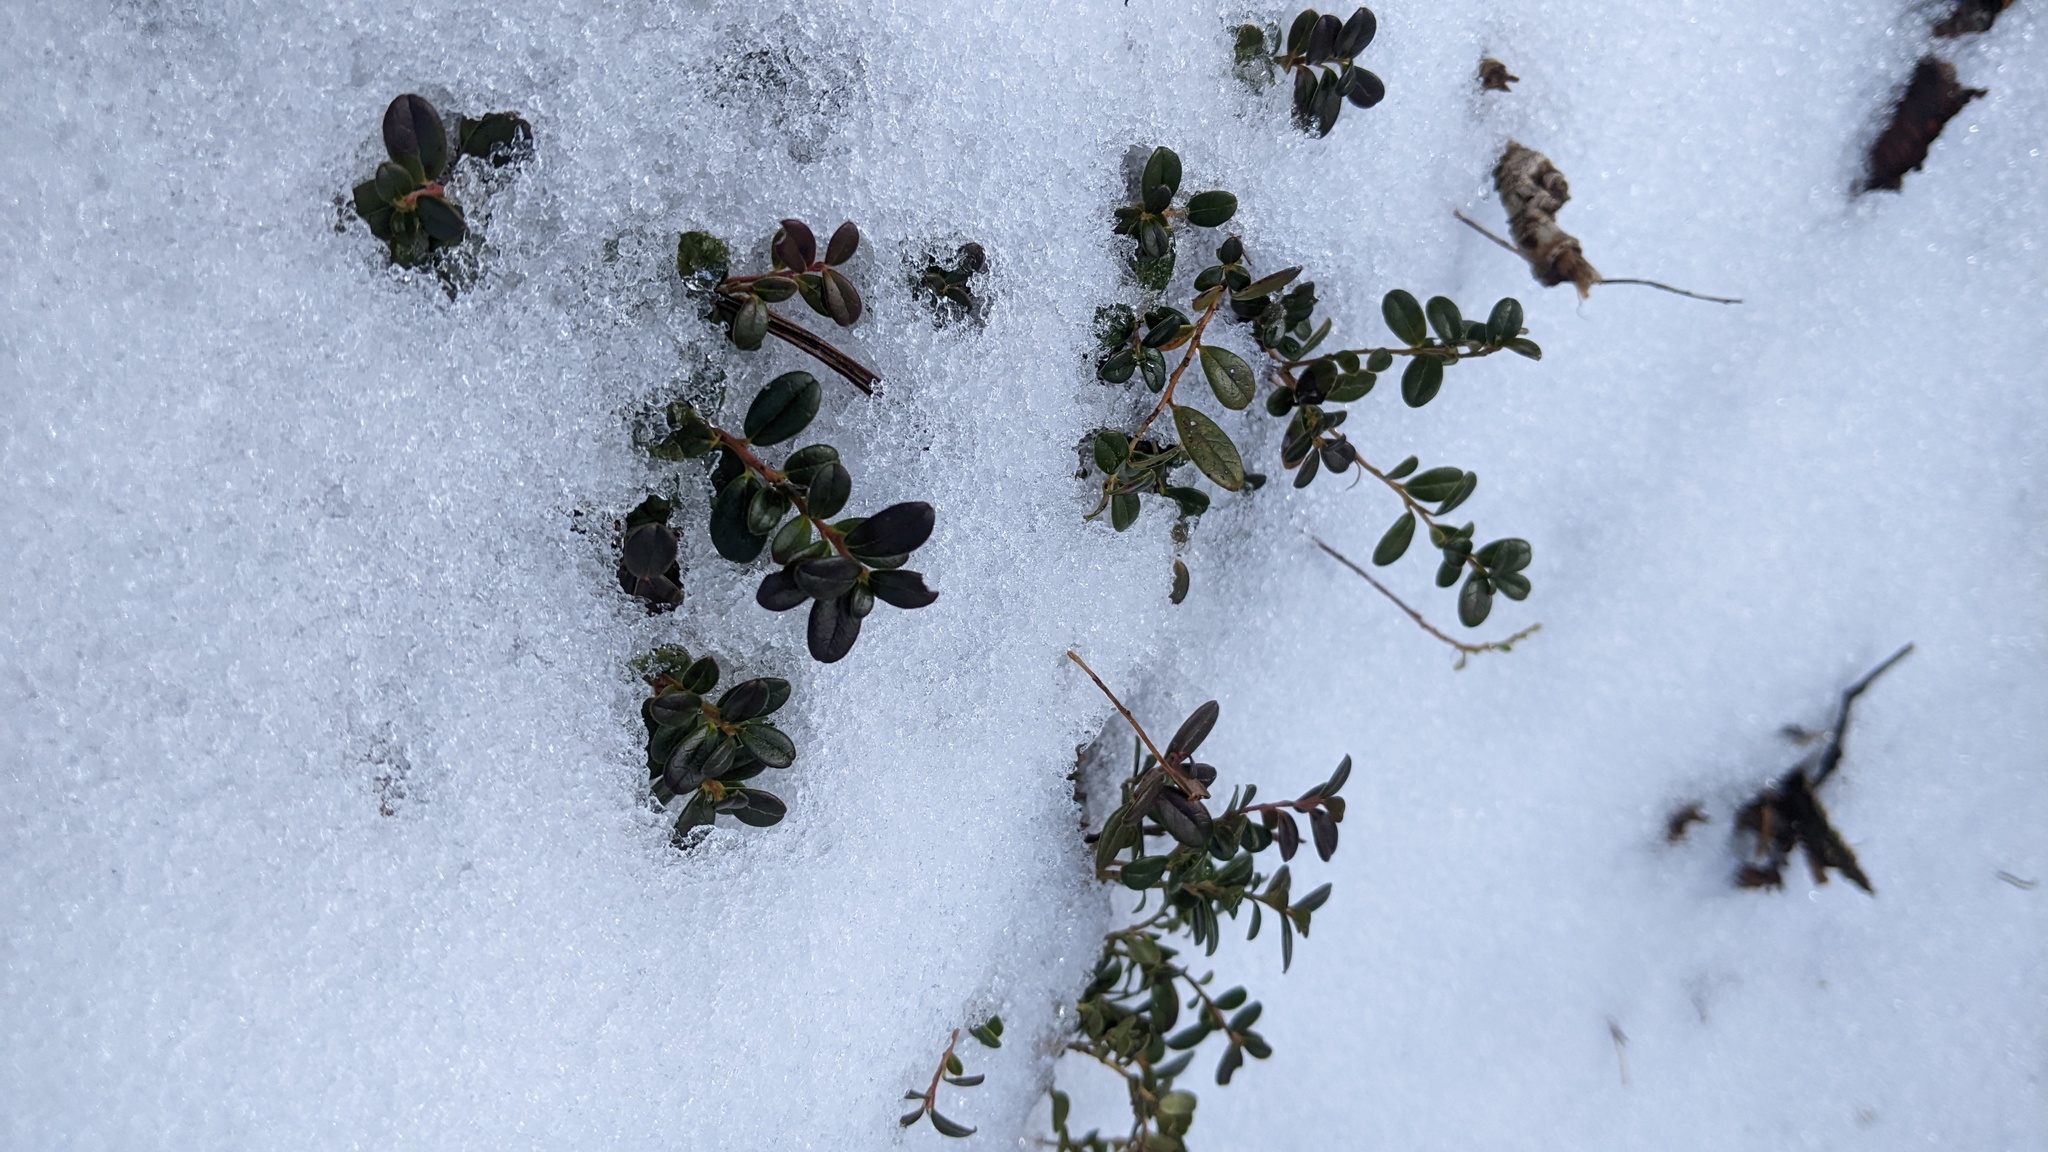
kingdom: Plantae
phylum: Tracheophyta
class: Magnoliopsida
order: Ericales
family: Ericaceae
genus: Vaccinium
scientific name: Vaccinium vitis-idaea
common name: Cowberry
